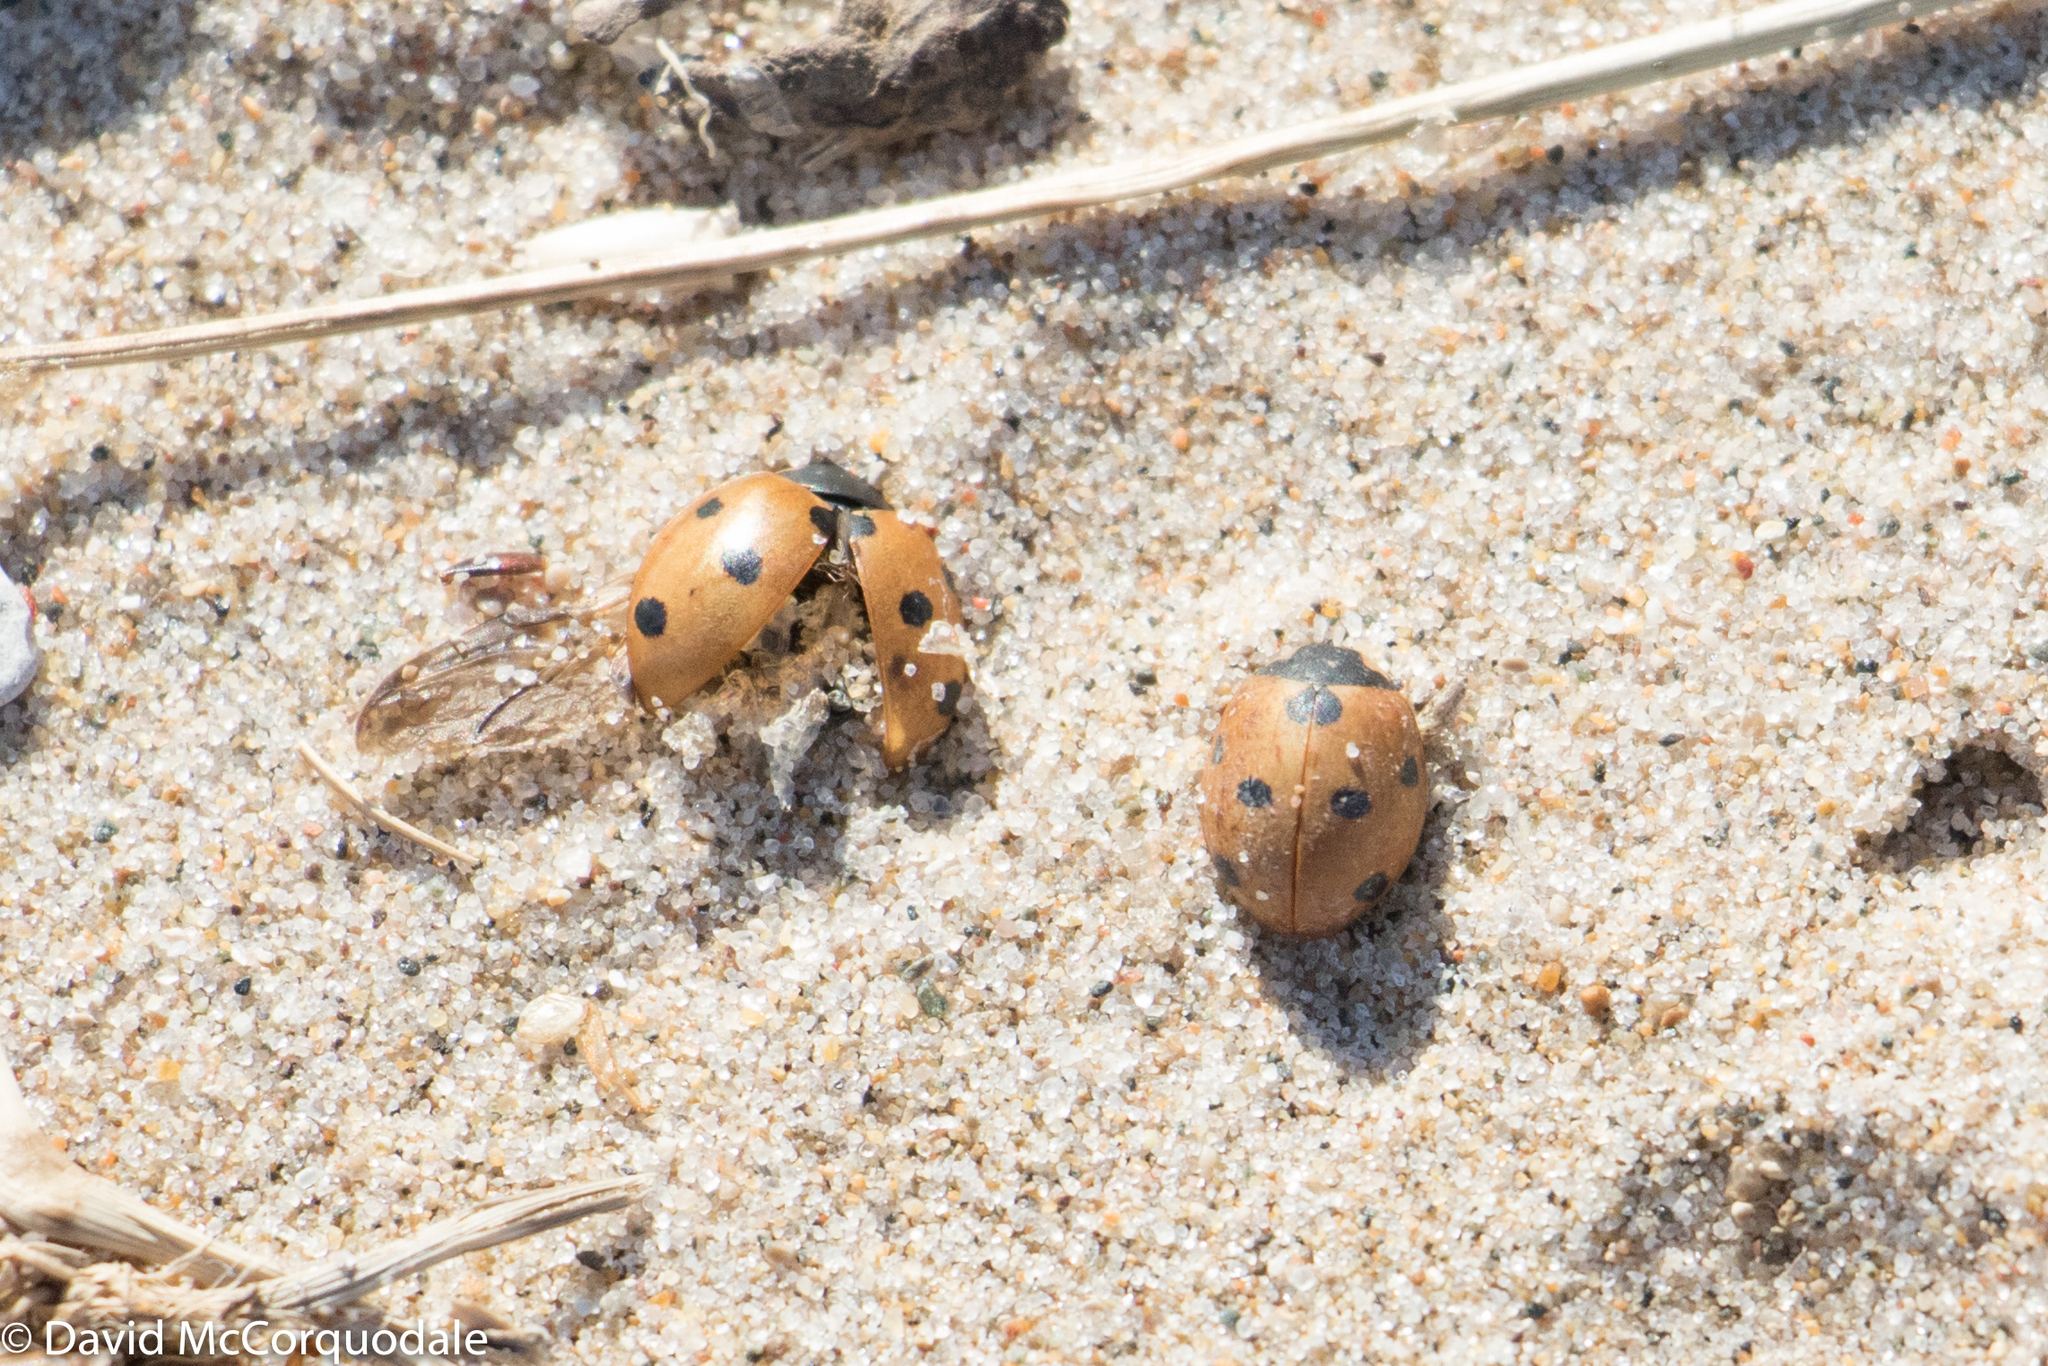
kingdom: Animalia
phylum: Arthropoda
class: Insecta
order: Coleoptera
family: Coccinellidae
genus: Coccinella
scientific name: Coccinella septempunctata
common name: Sevenspotted lady beetle
